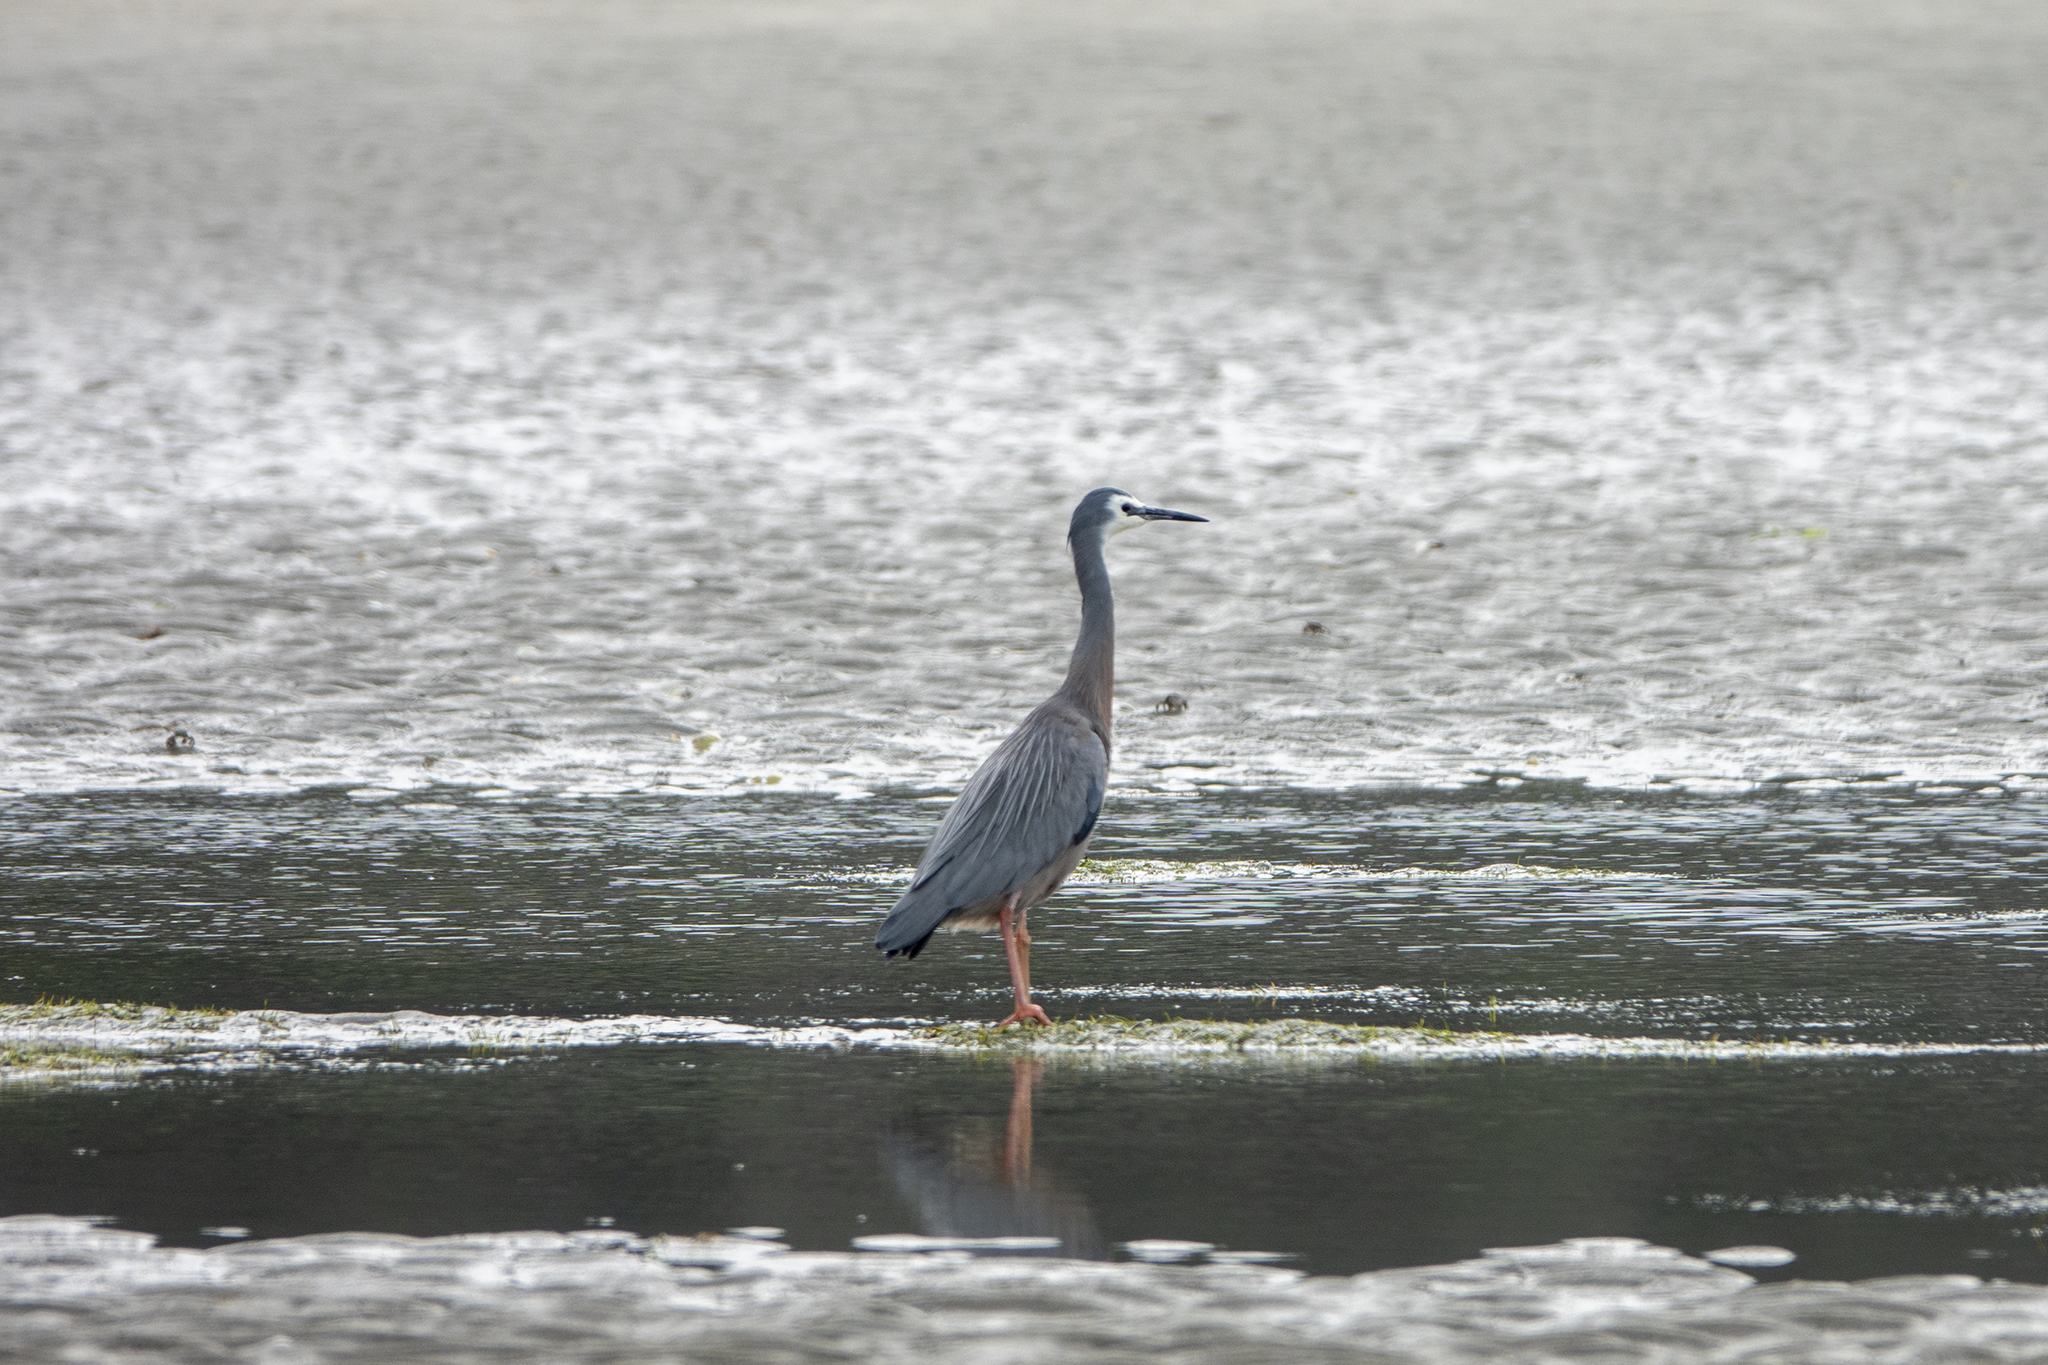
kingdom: Animalia
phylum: Chordata
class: Aves
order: Pelecaniformes
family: Ardeidae
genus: Egretta
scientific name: Egretta novaehollandiae
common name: White-faced heron
